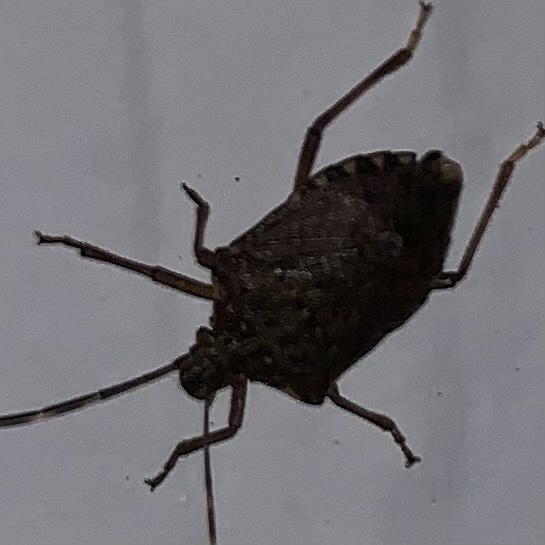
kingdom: Animalia
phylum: Arthropoda
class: Insecta
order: Hemiptera
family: Pentatomidae
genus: Halyomorpha
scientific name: Halyomorpha halys
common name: Brown marmorated stink bug
